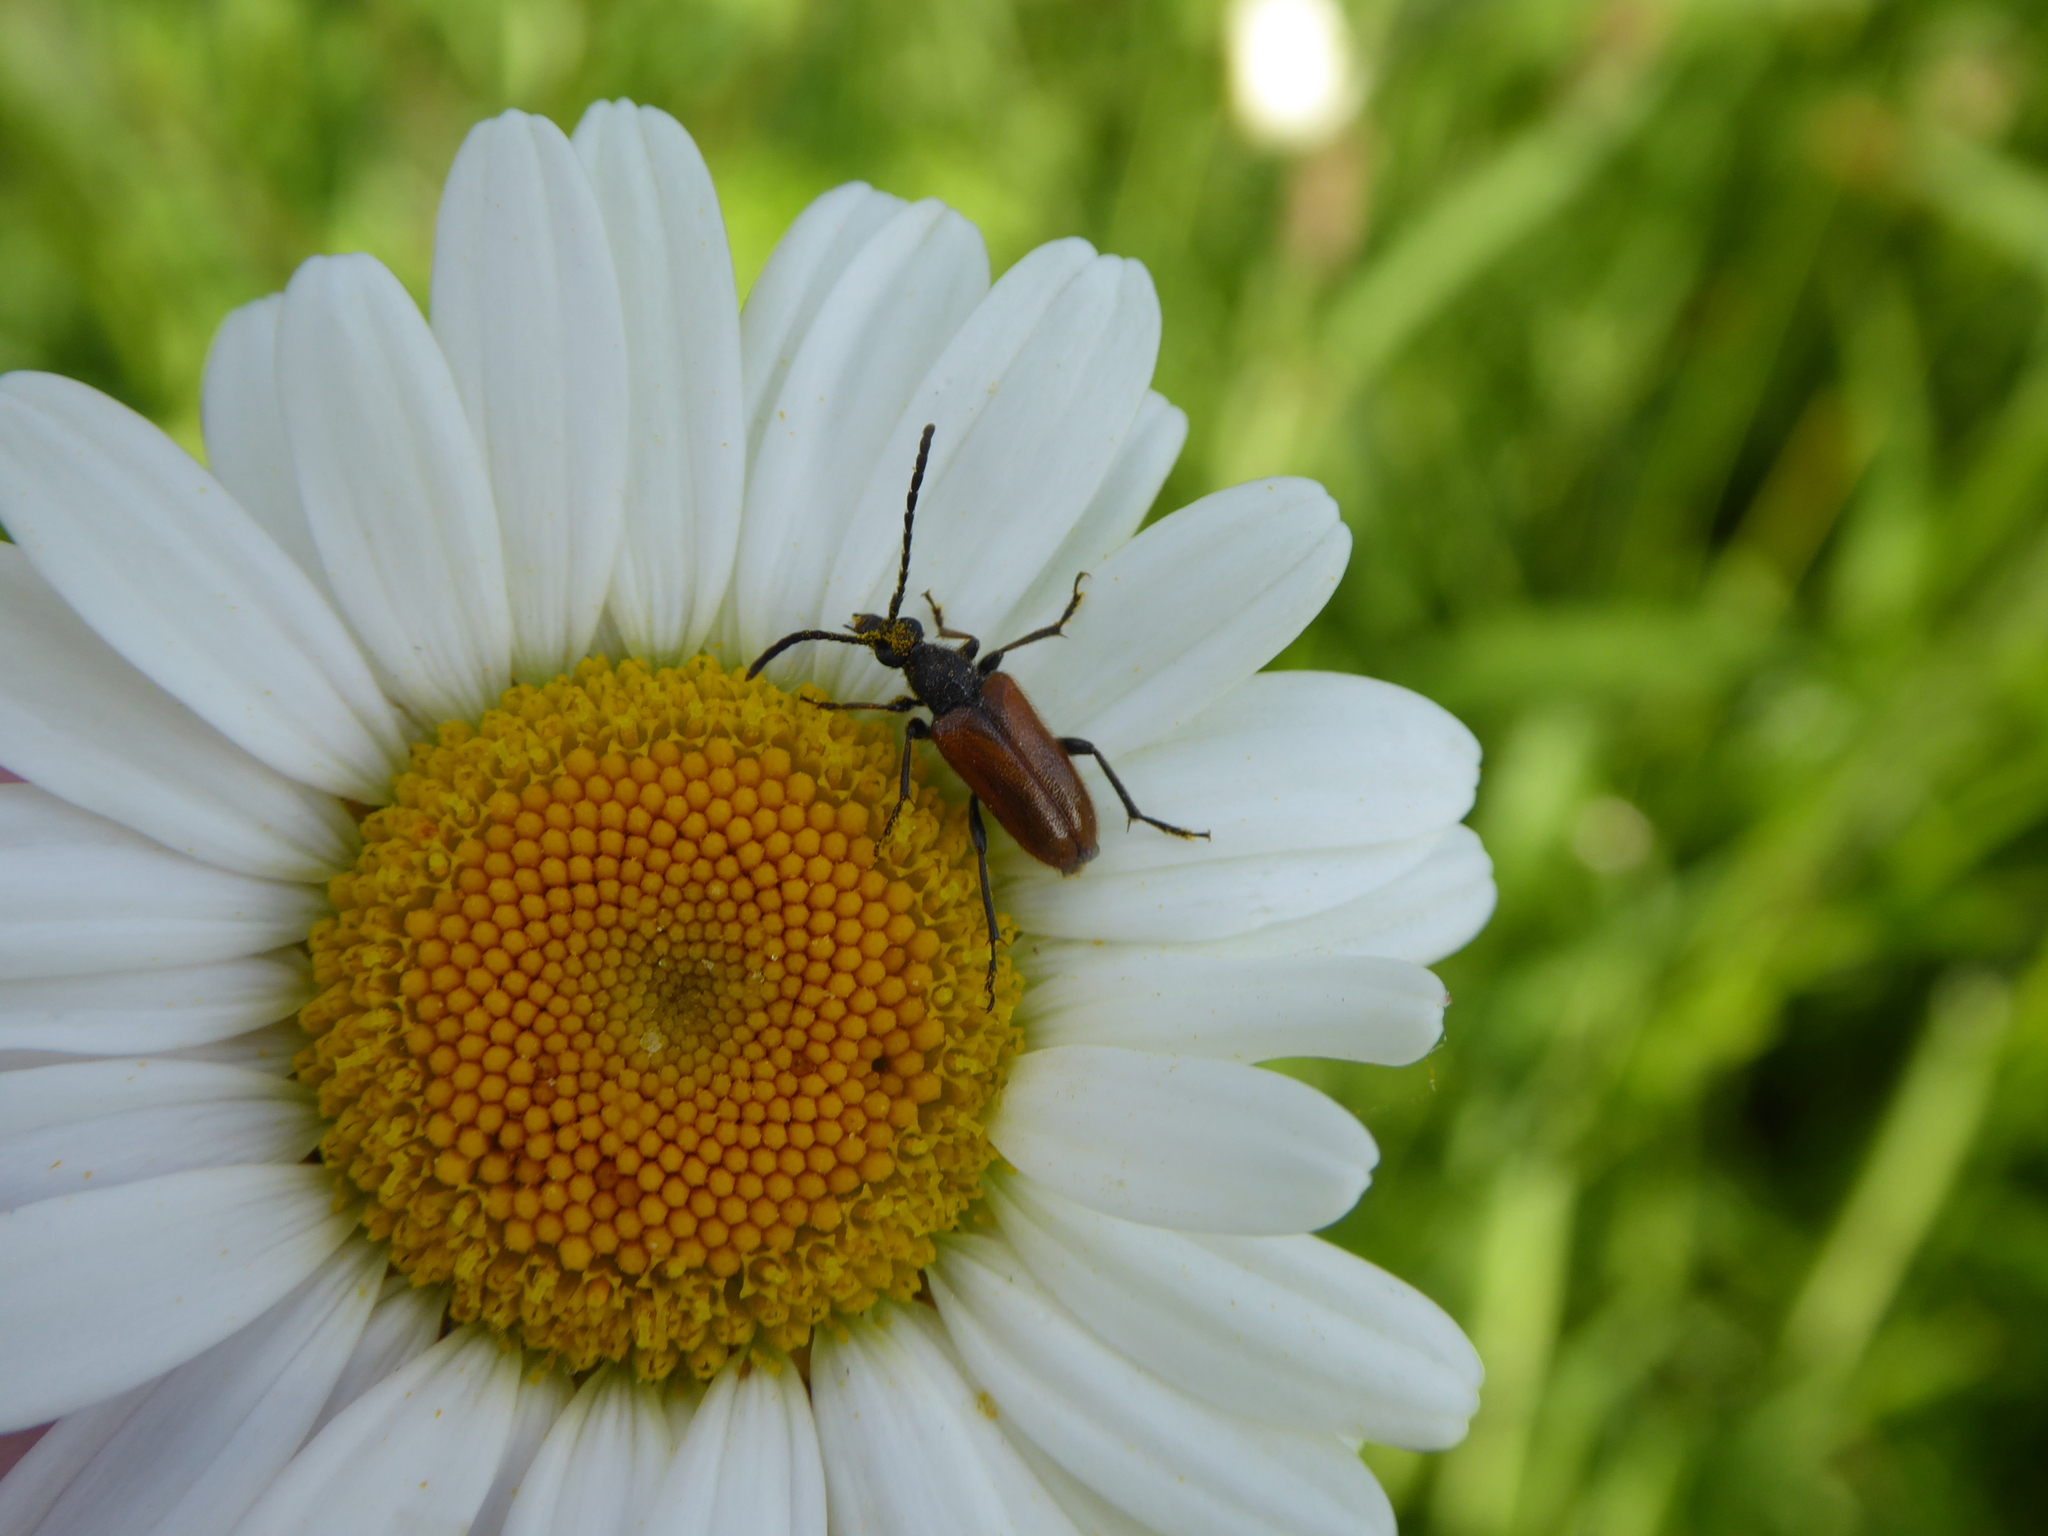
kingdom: Animalia
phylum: Arthropoda
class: Insecta
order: Coleoptera
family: Cerambycidae
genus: Pseudovadonia
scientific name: Pseudovadonia livida
